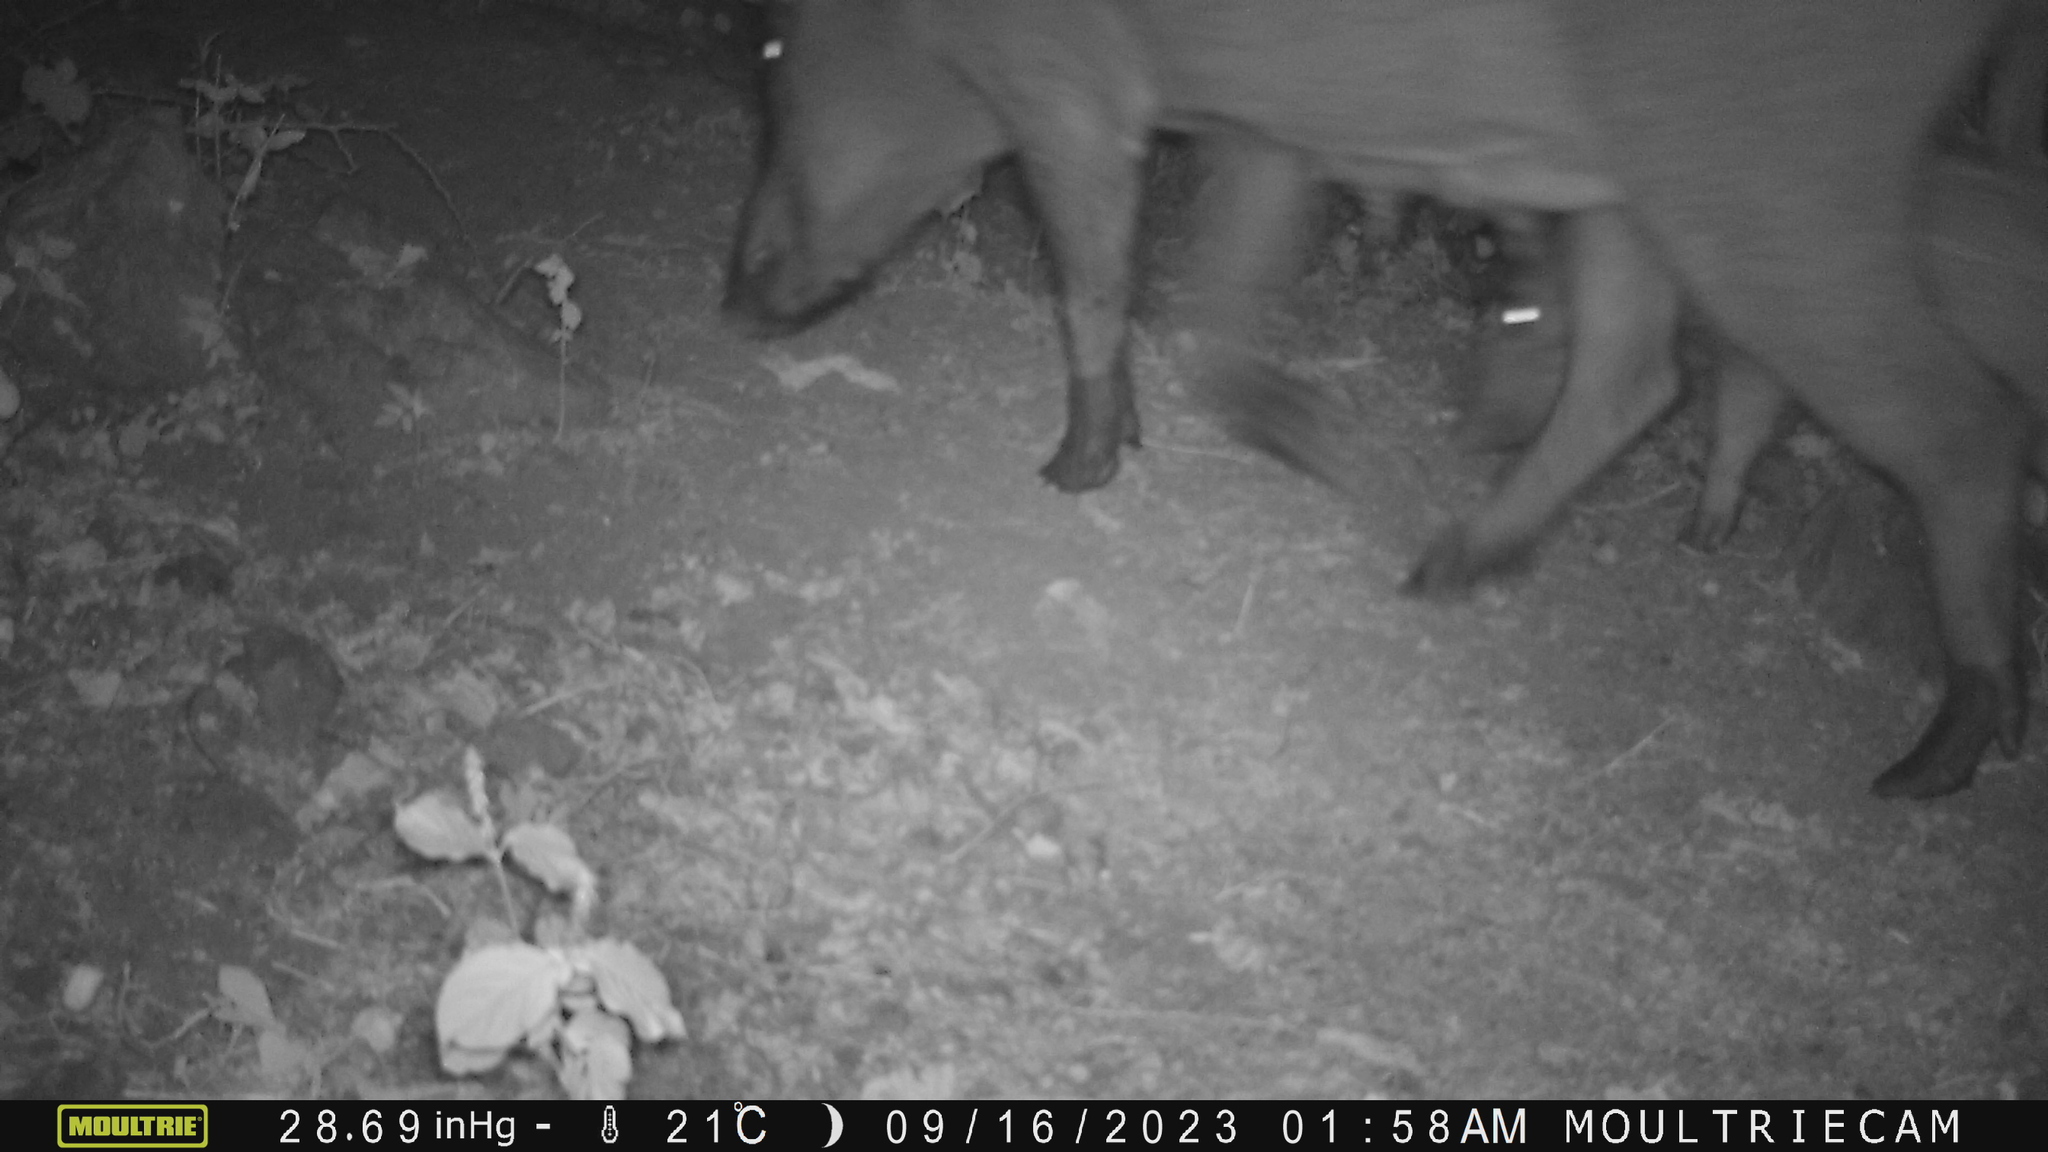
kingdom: Animalia
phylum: Chordata
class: Mammalia
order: Artiodactyla
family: Suidae
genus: Sus
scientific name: Sus scrofa
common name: Wild boar
